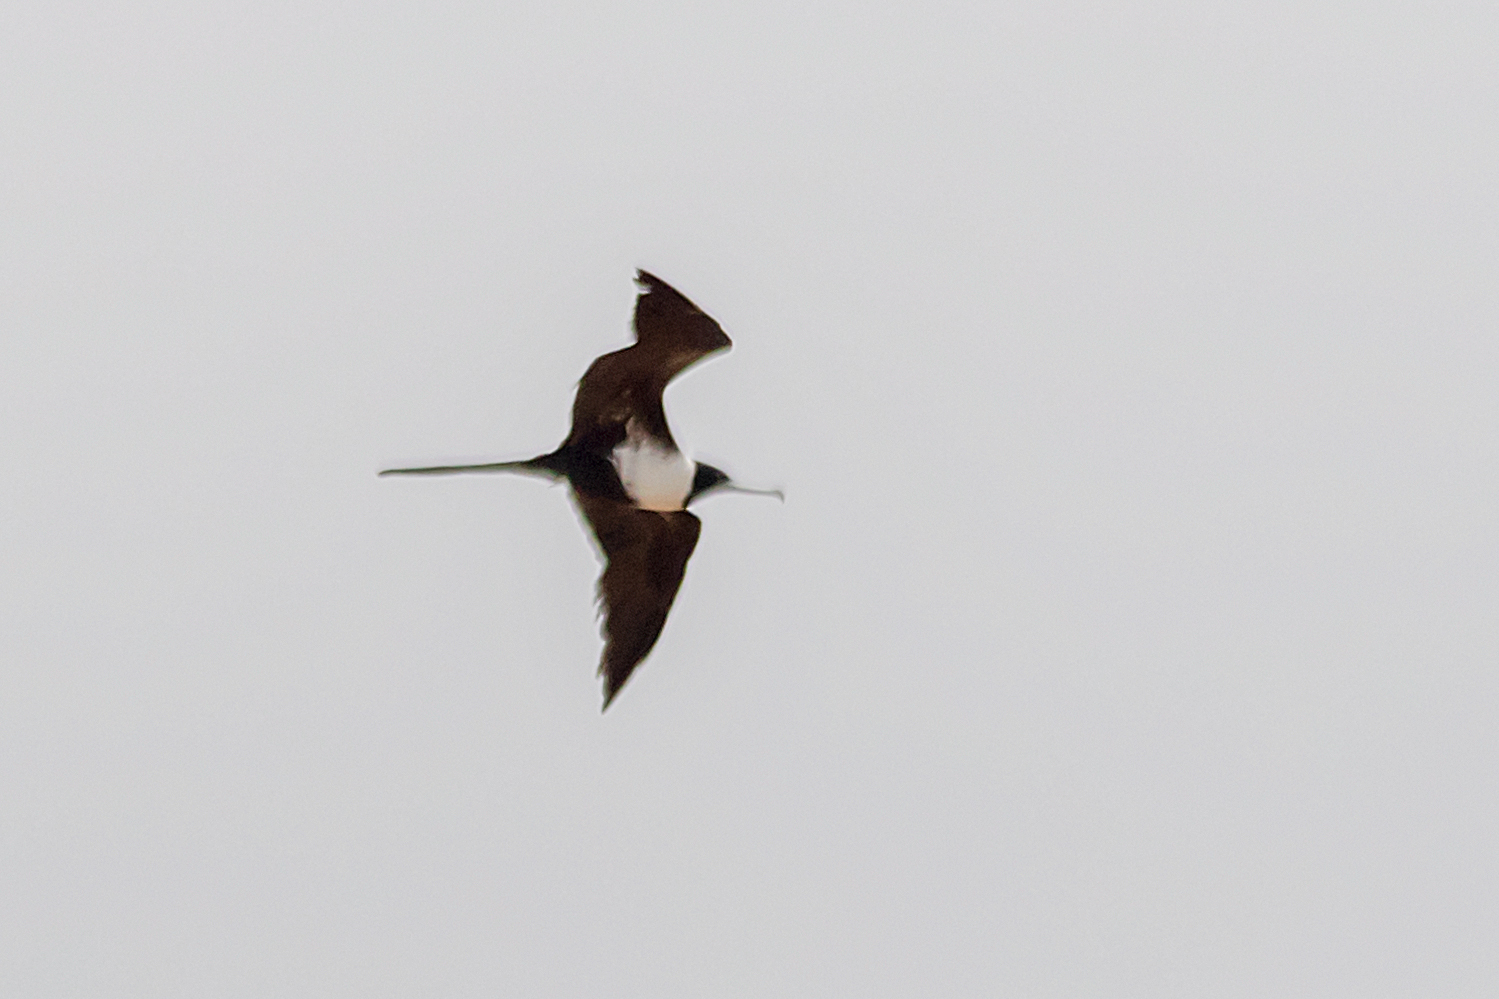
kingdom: Animalia
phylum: Chordata
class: Aves
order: Suliformes
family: Fregatidae
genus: Fregata
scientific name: Fregata ariel
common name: Lesser frigatebird
